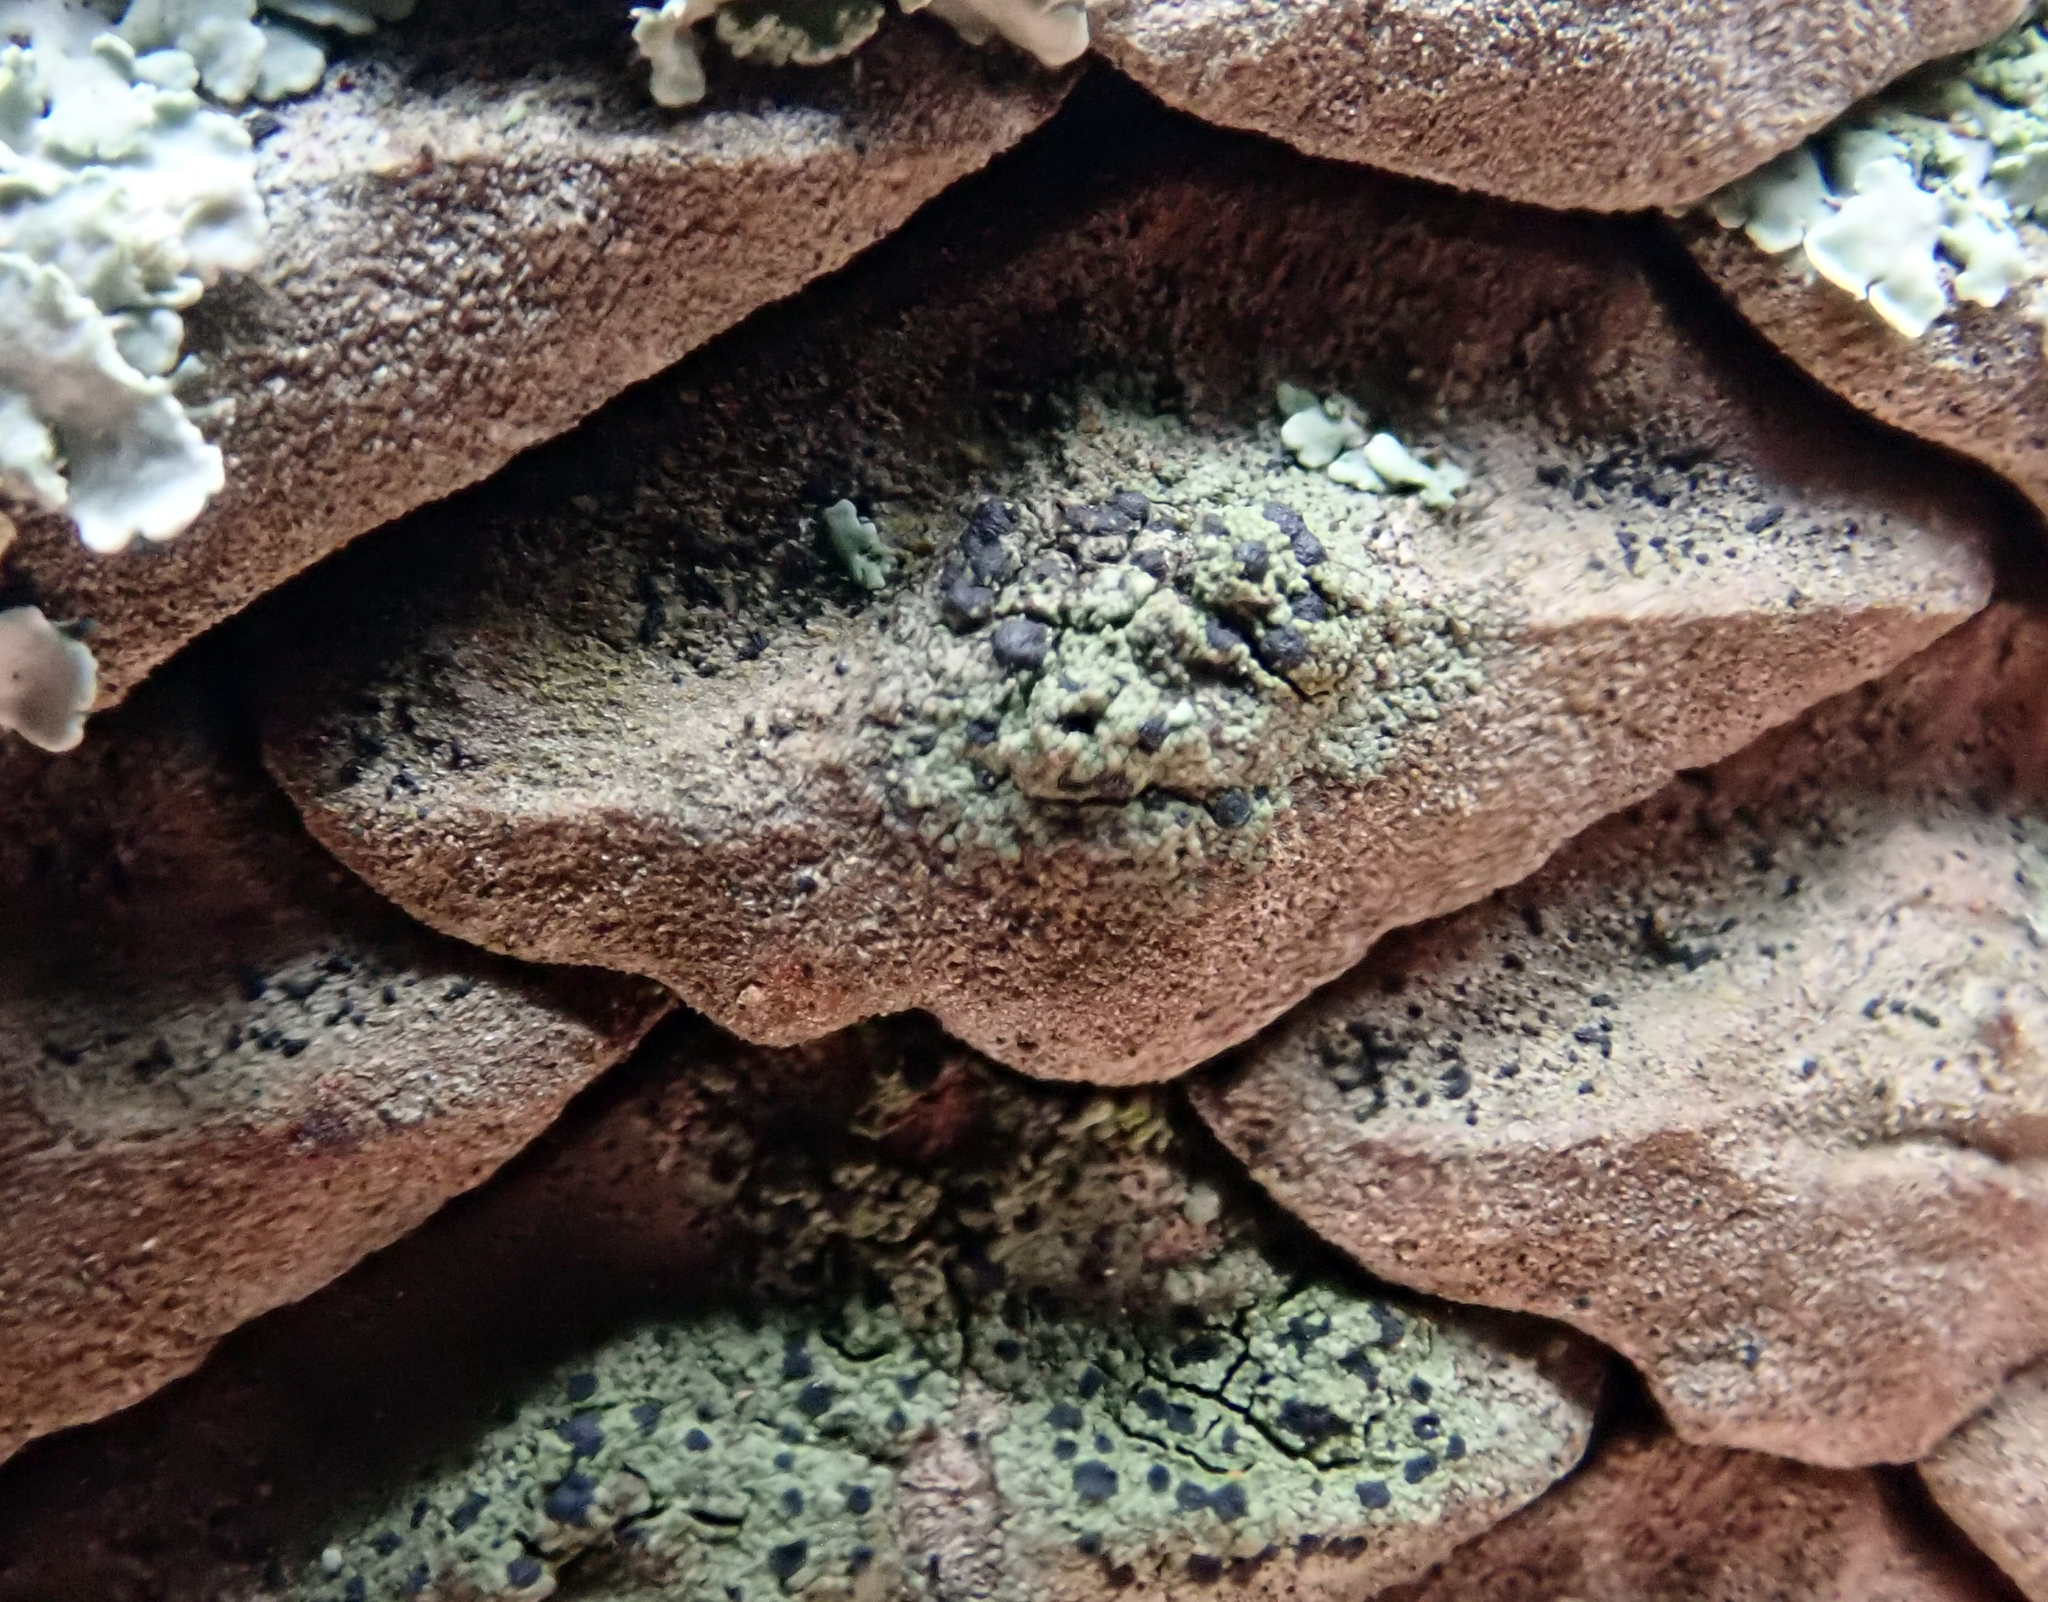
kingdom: Fungi
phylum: Ascomycota
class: Lecanoromycetes
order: Lecanorales
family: Ramalinaceae
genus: Bacidia
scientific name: Bacidia wellingtonii
